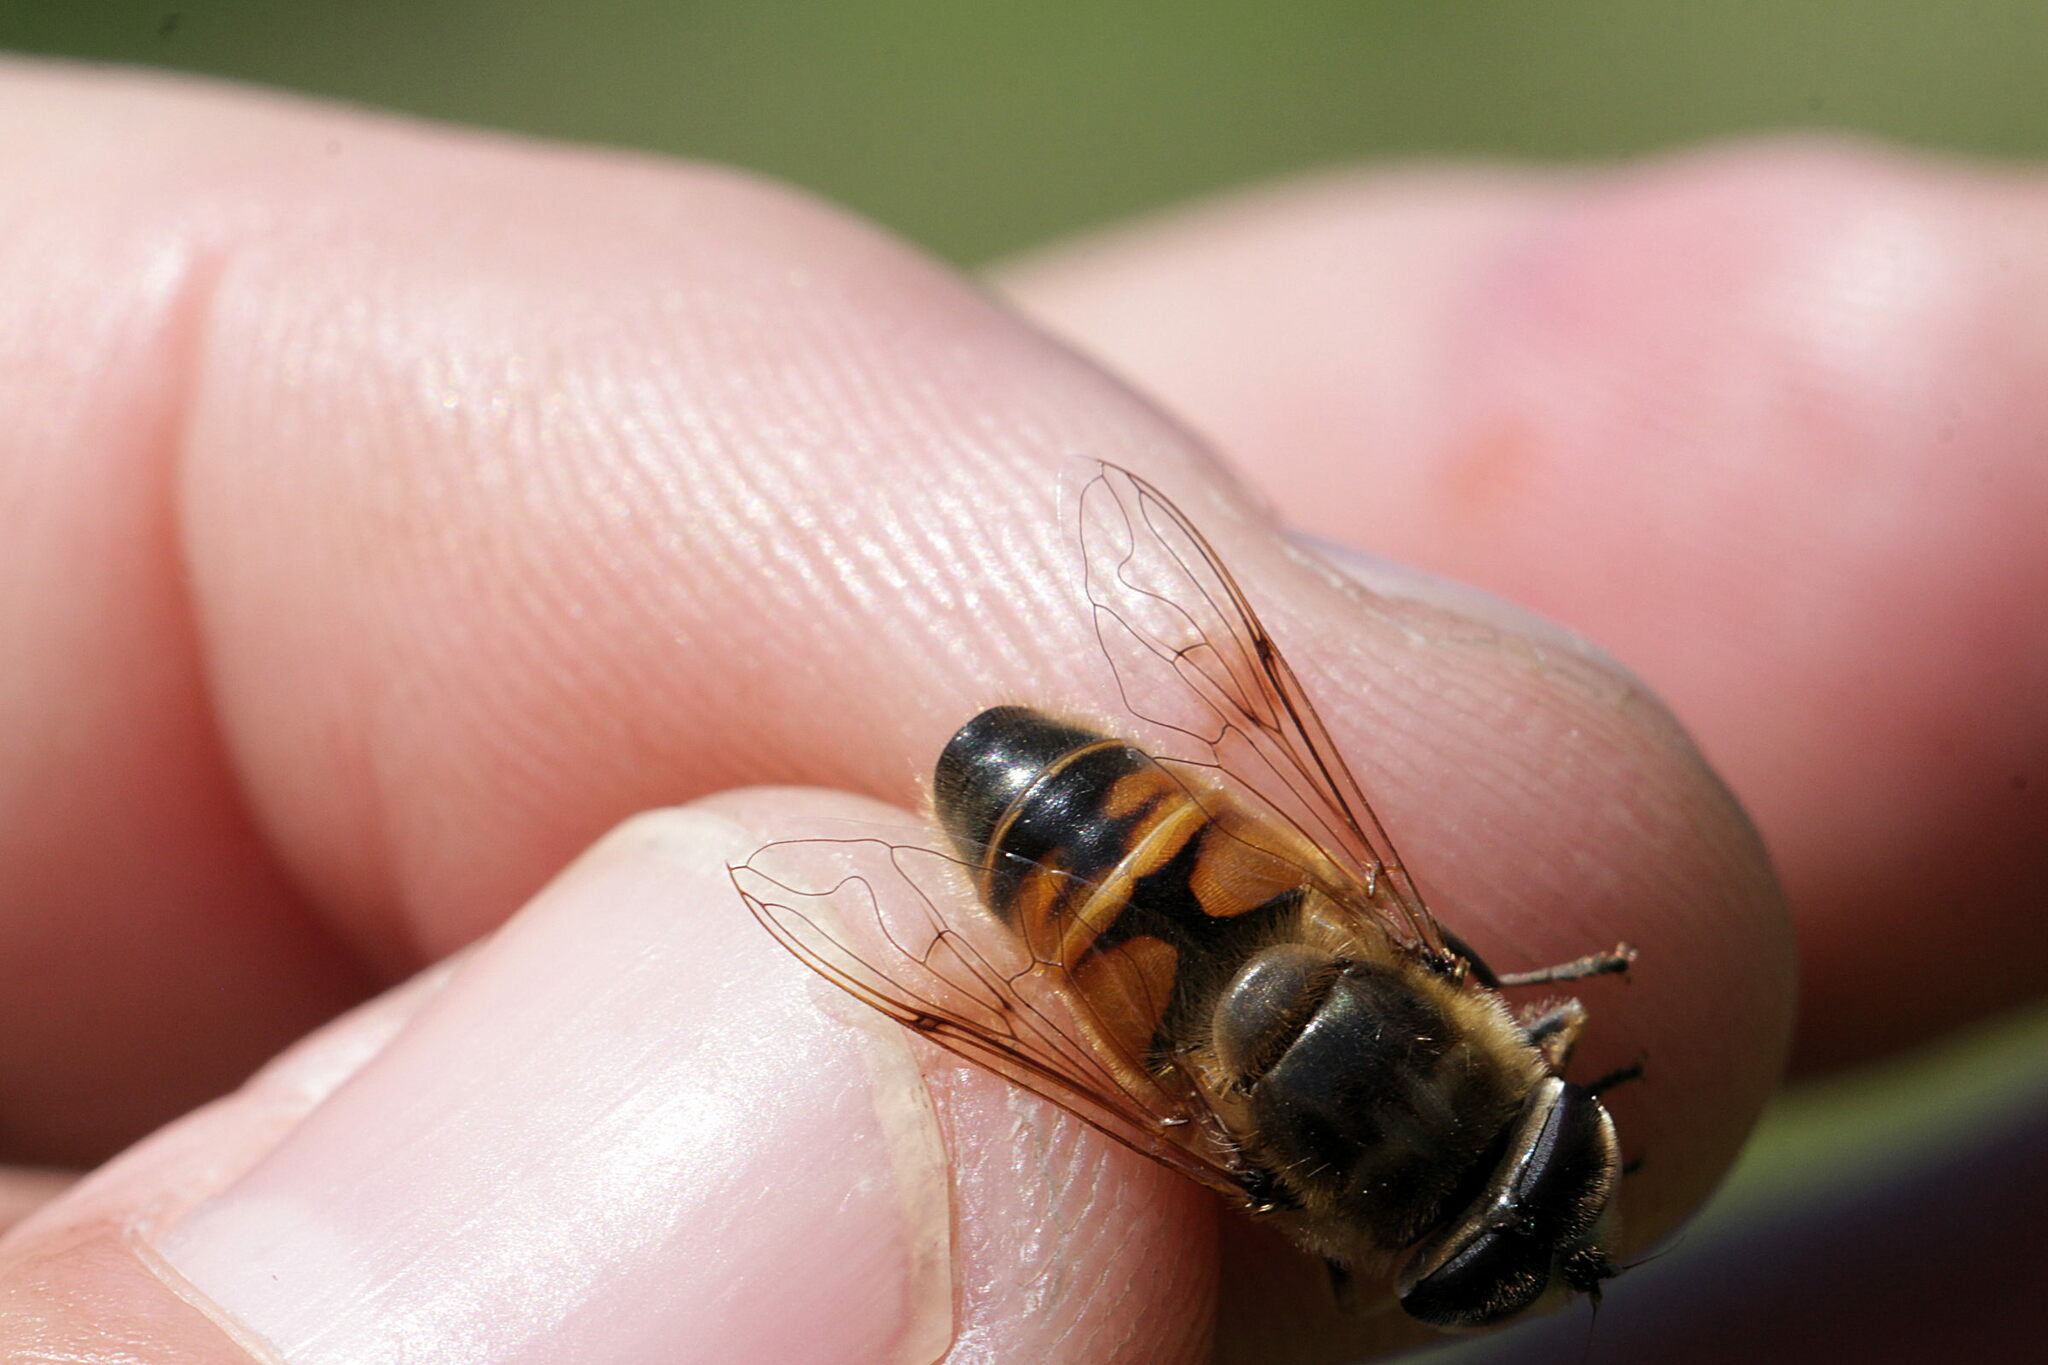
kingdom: Animalia
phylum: Arthropoda
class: Insecta
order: Diptera
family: Syrphidae
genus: Eristalis
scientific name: Eristalis tenax
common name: Drone fly
